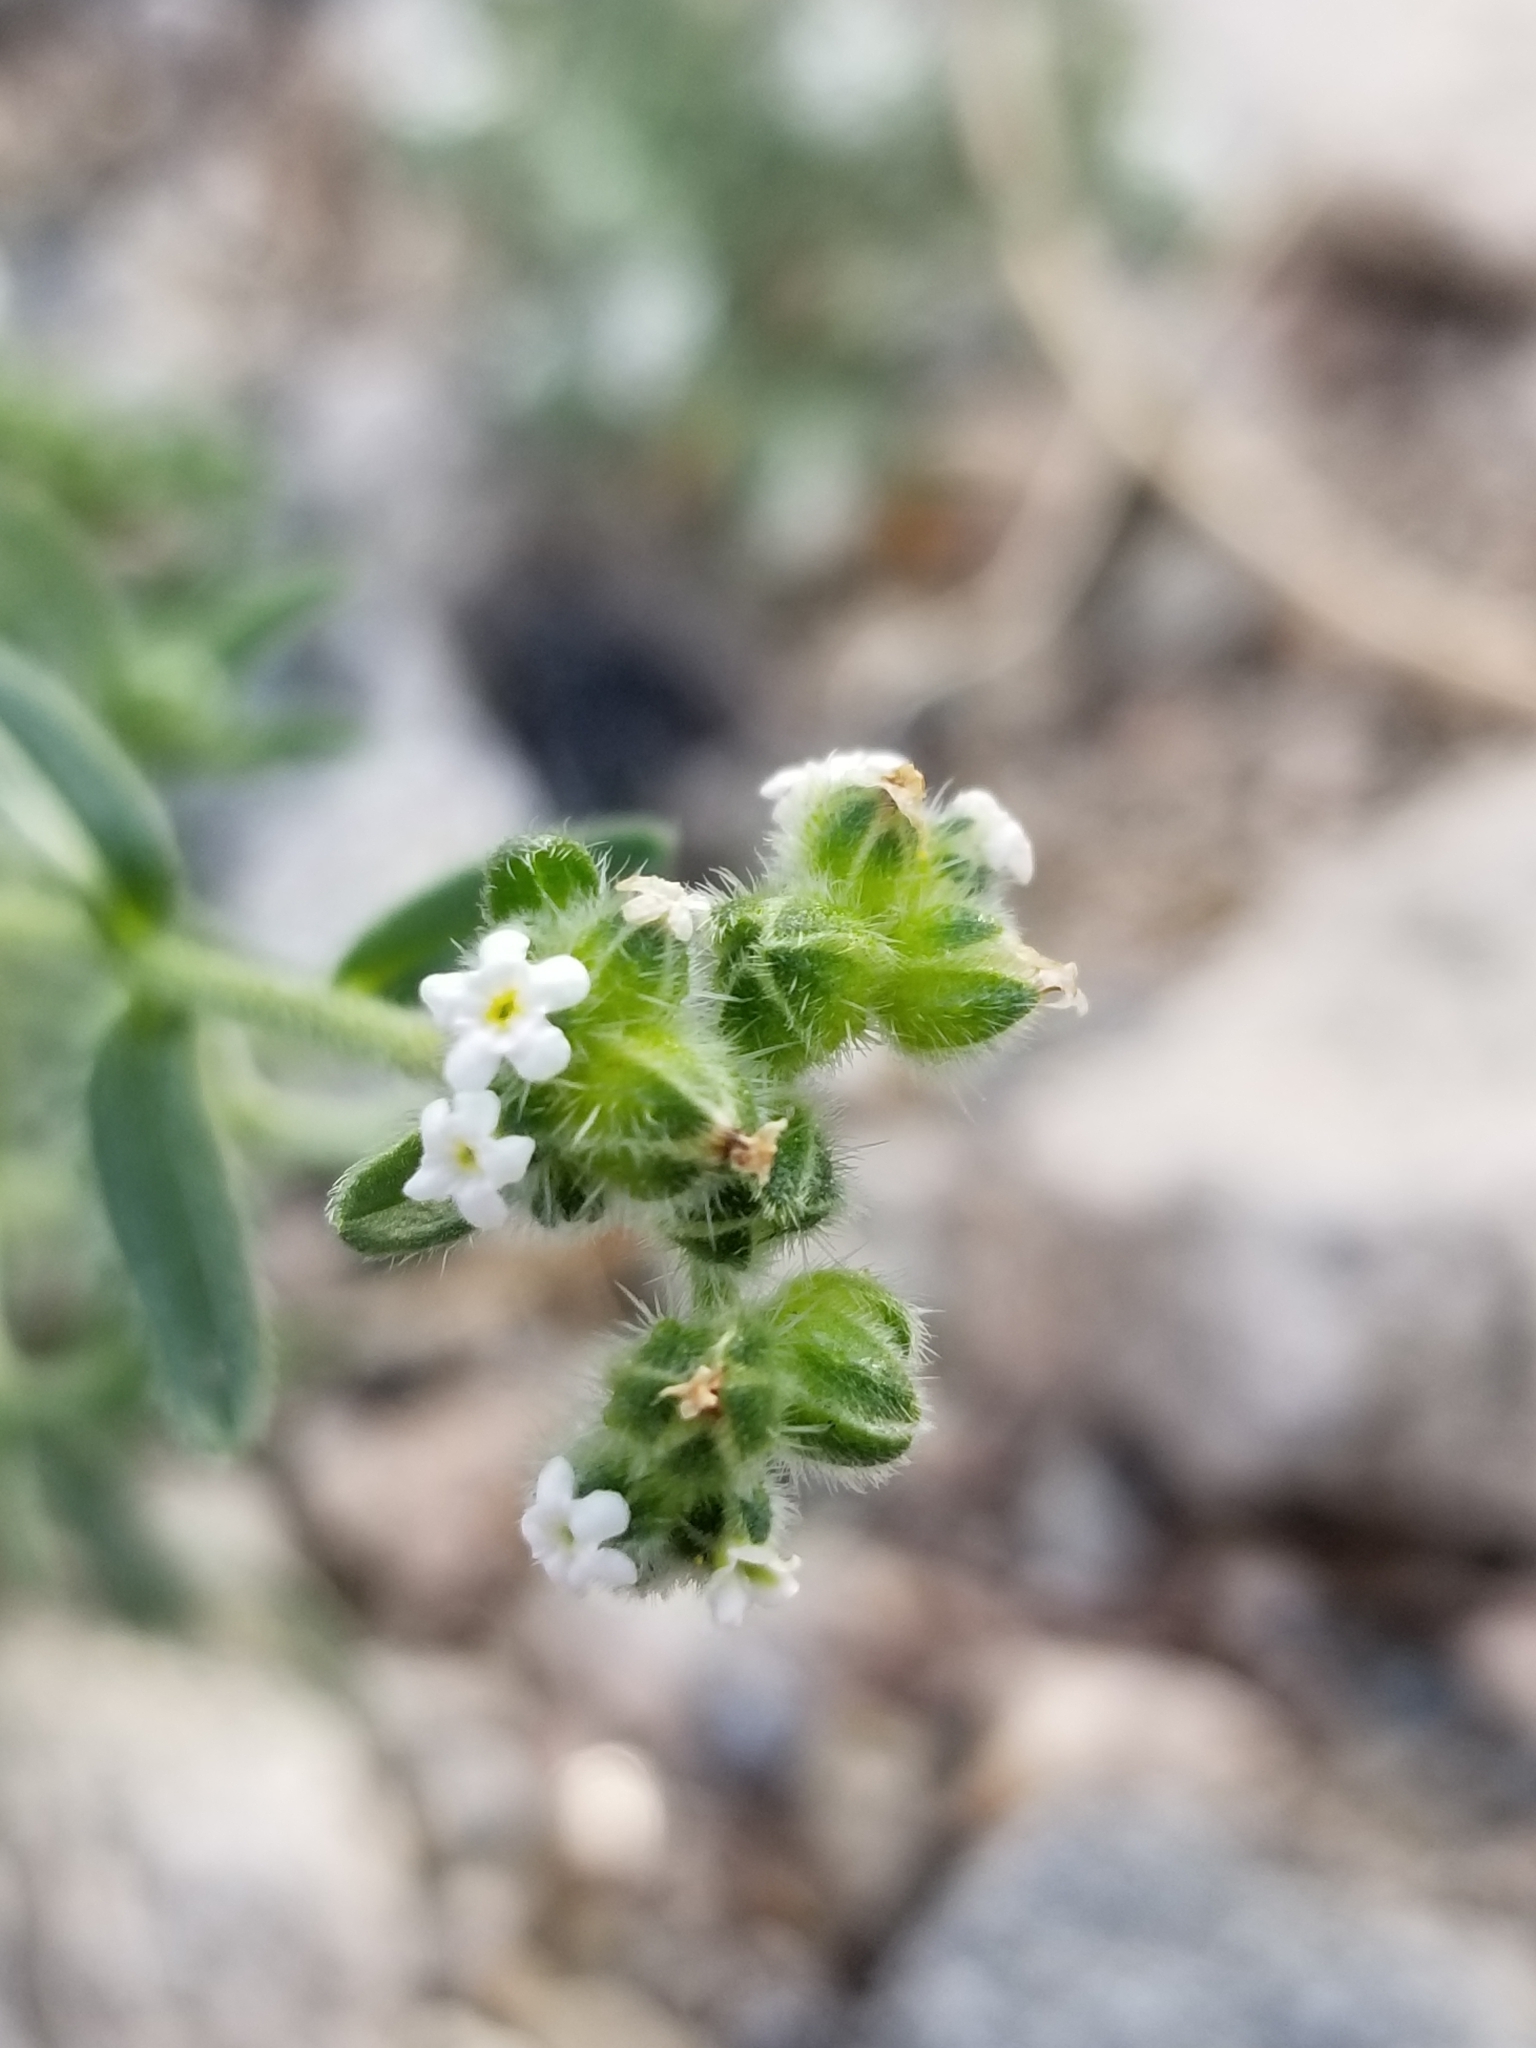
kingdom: Plantae
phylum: Tracheophyta
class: Magnoliopsida
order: Boraginales
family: Boraginaceae
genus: Cryptantha
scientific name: Cryptantha pterocarya
